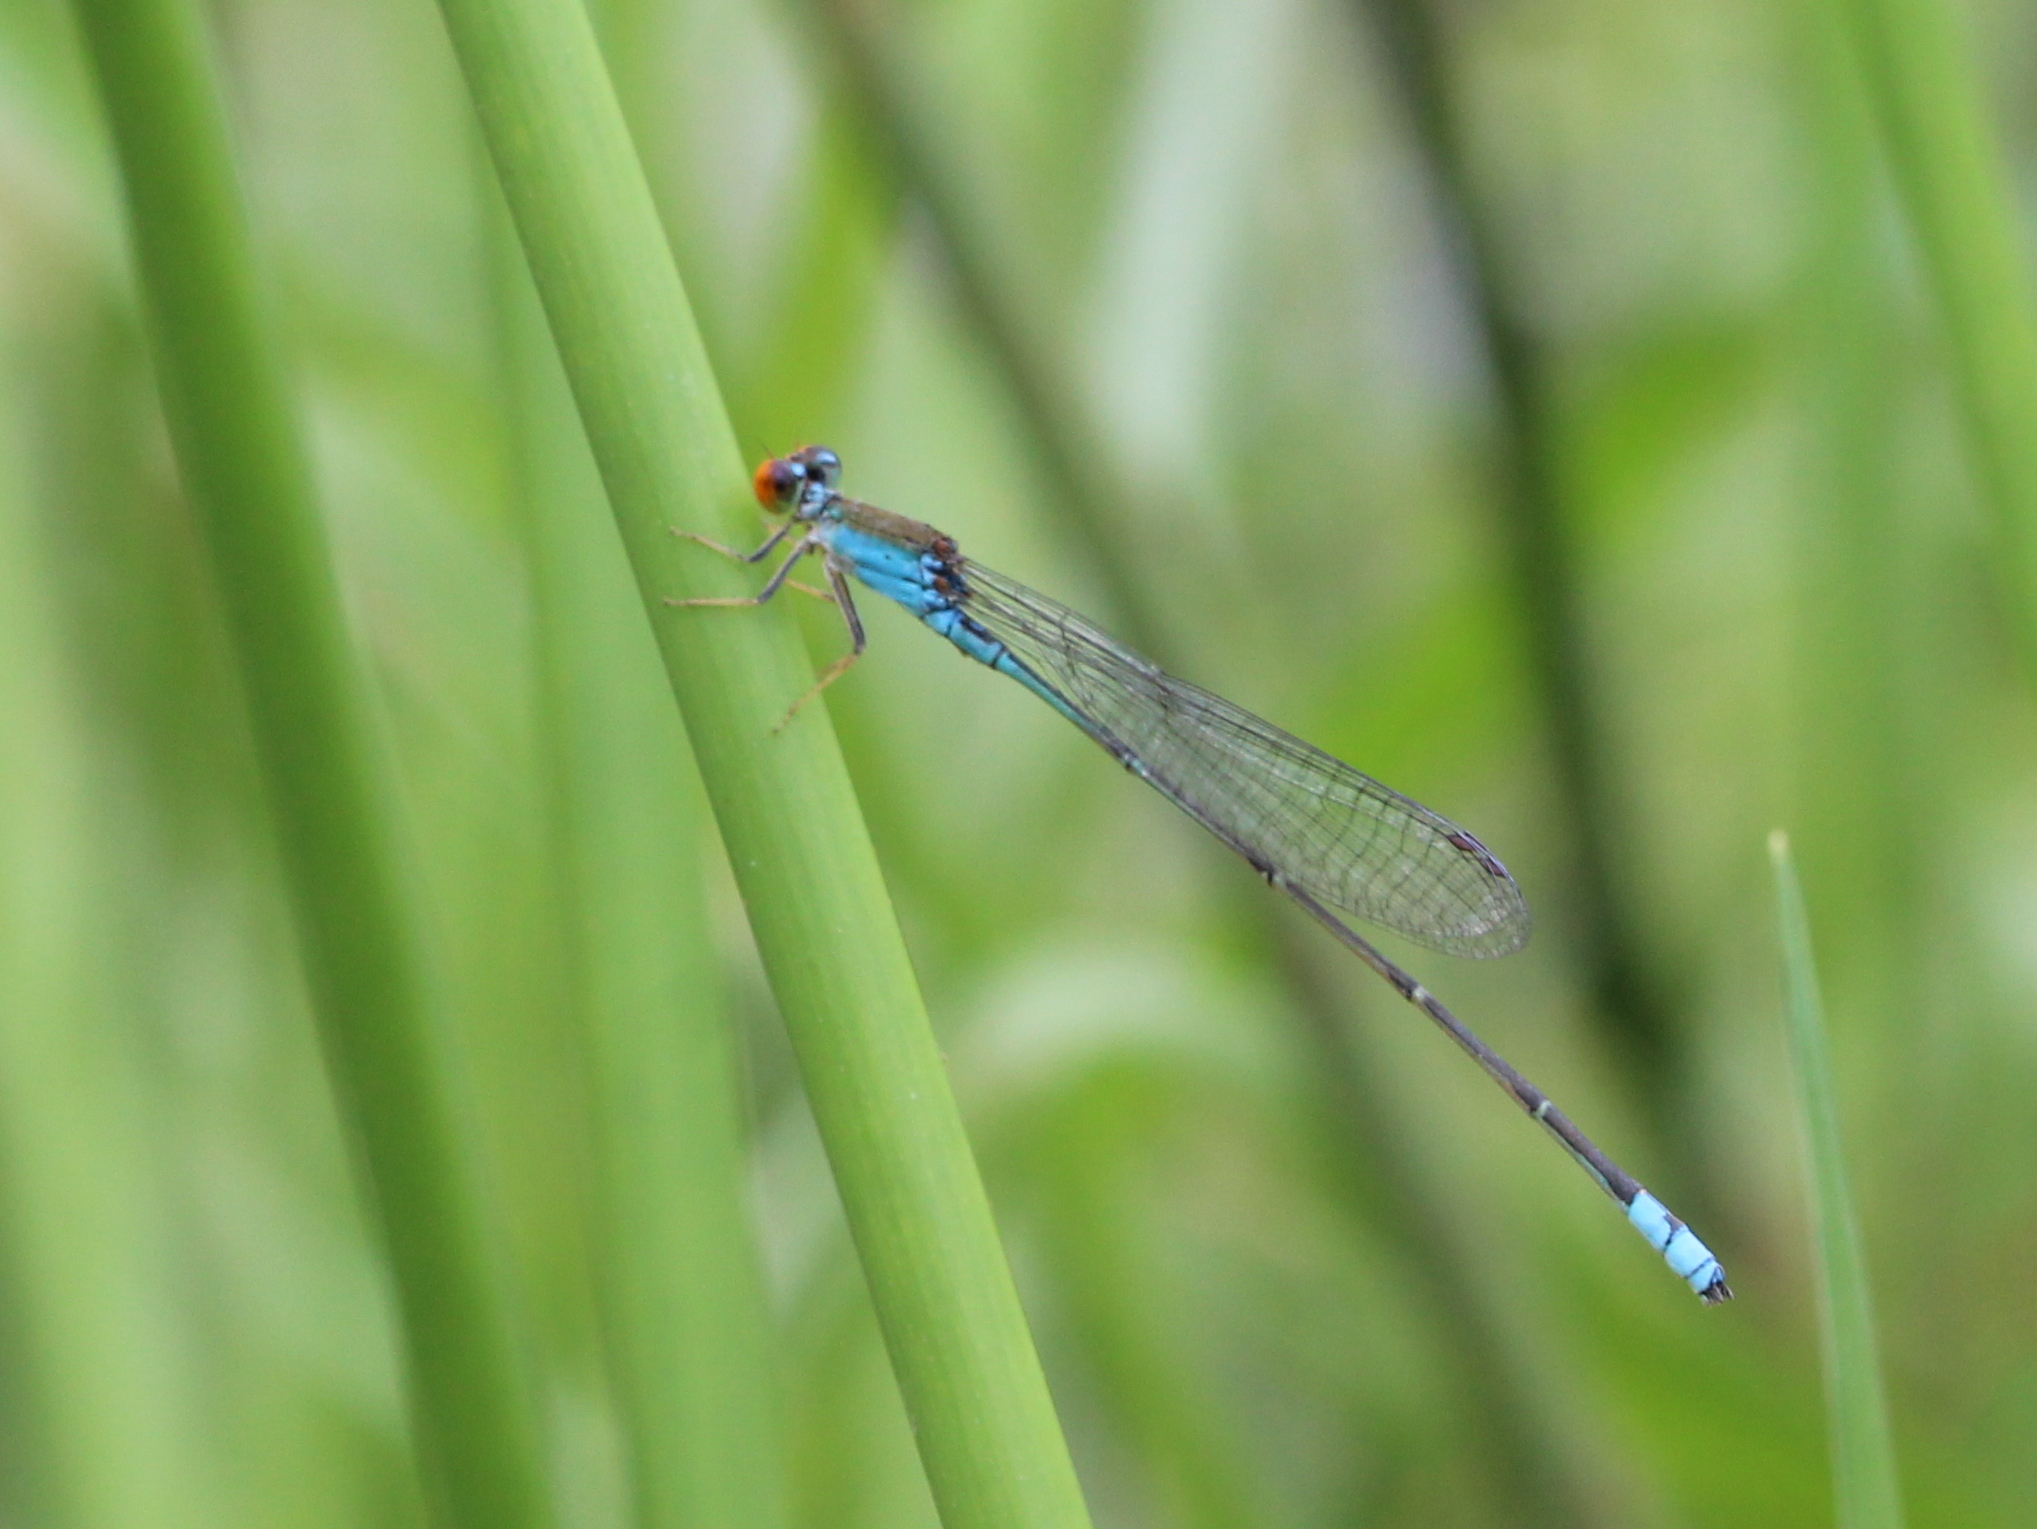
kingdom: Animalia
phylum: Arthropoda
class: Insecta
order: Odonata
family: Coenagrionidae
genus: Pseudagrion
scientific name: Pseudagrion rubriceps
